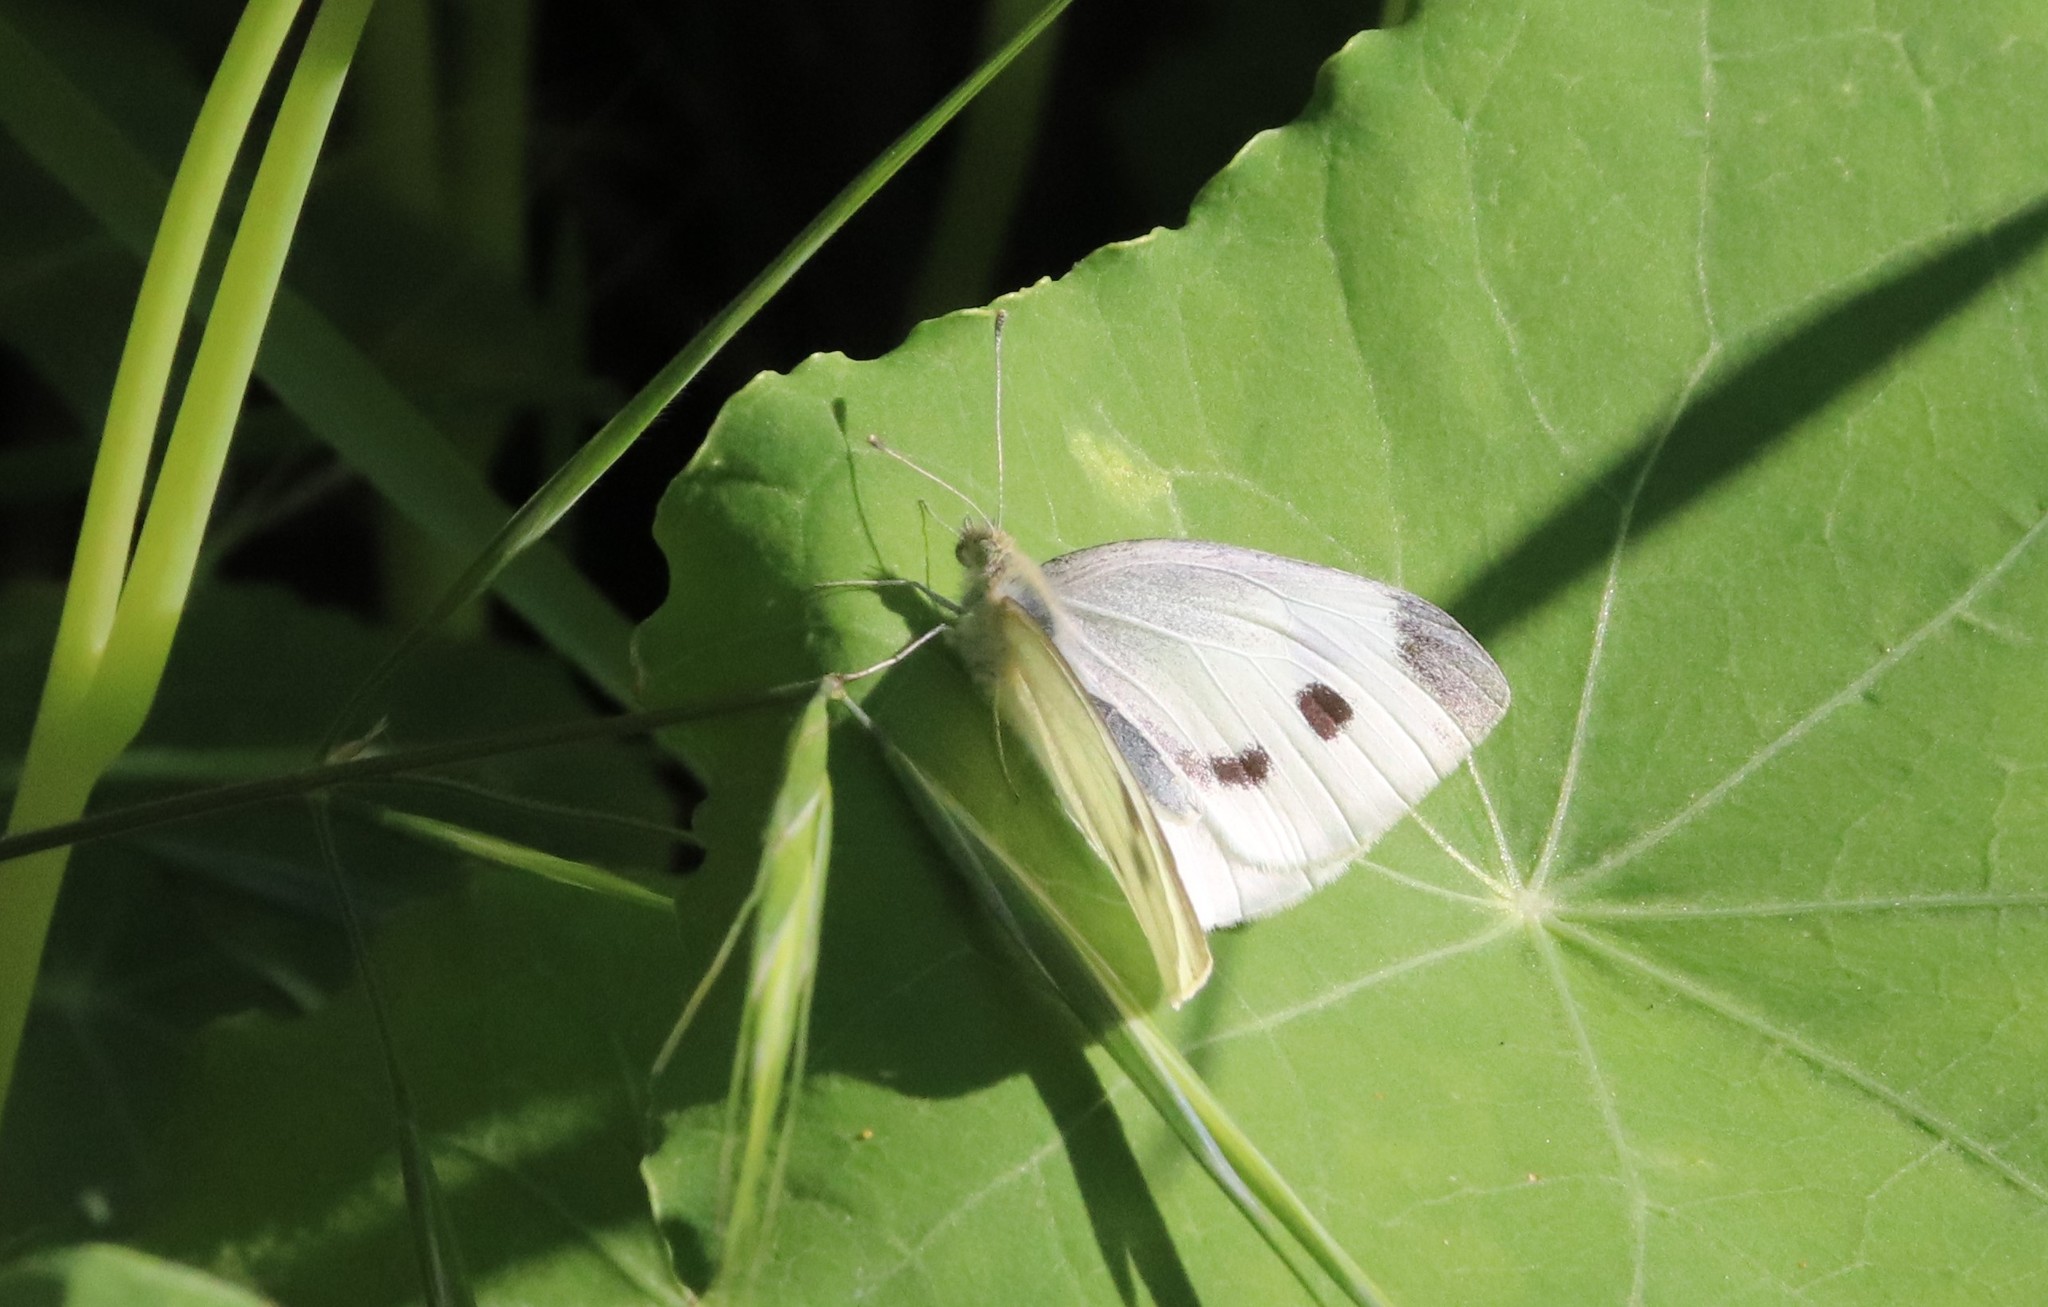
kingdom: Animalia
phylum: Arthropoda
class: Insecta
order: Lepidoptera
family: Pieridae
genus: Pieris
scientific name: Pieris rapae
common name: Small white
